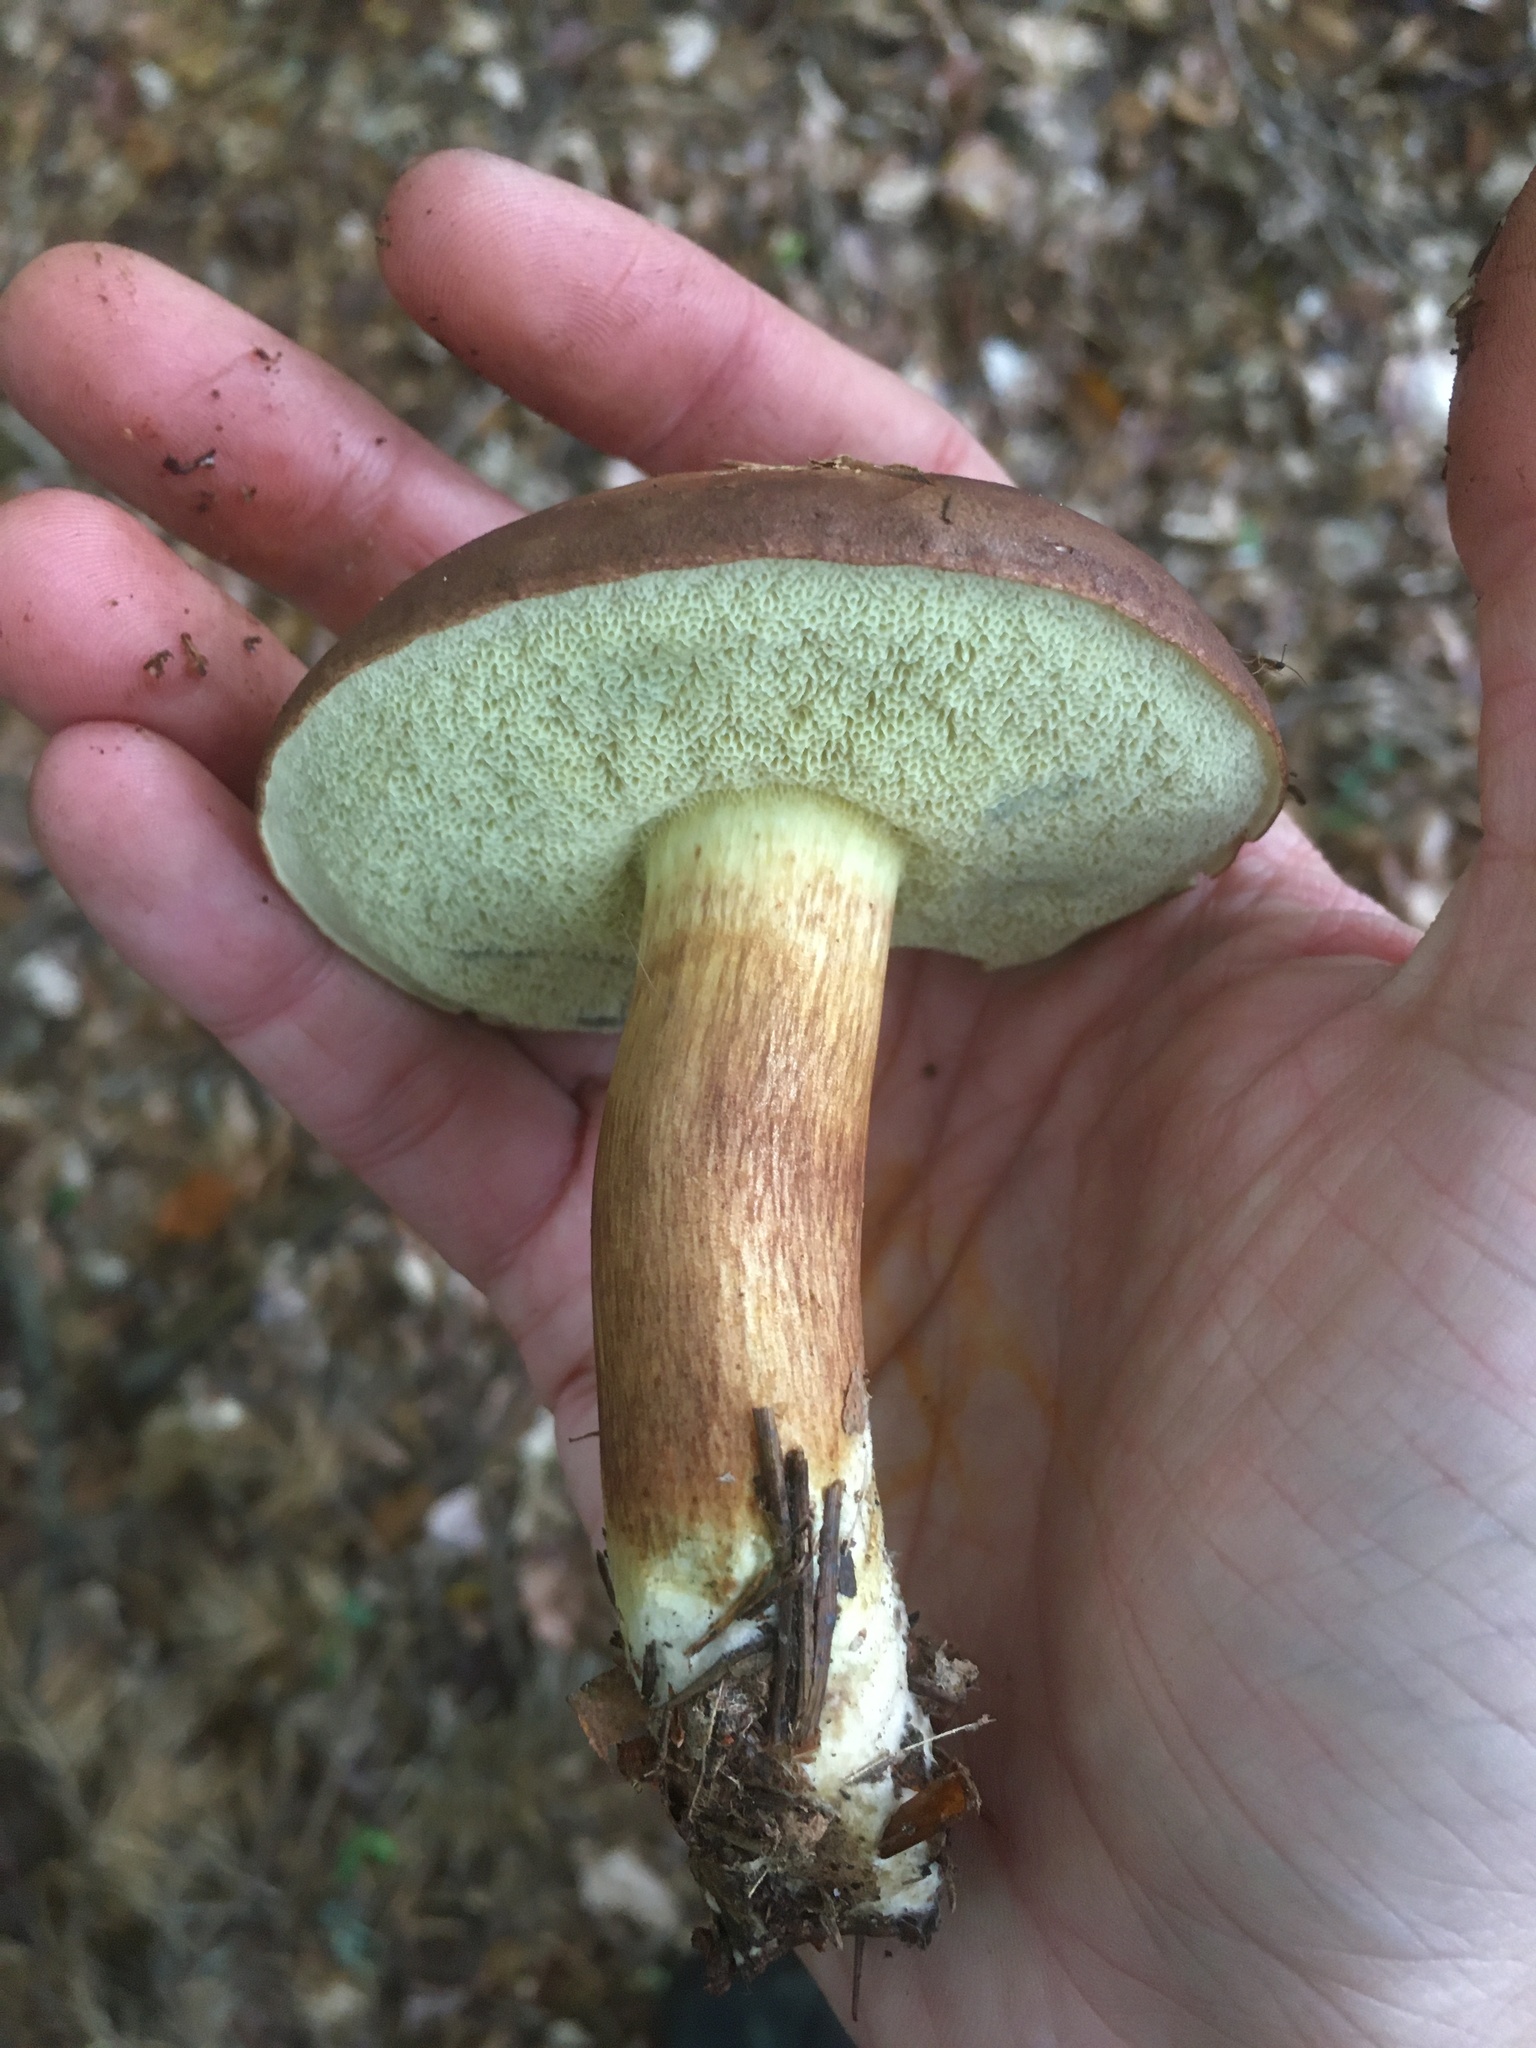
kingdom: Fungi
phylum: Basidiomycota
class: Agaricomycetes
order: Boletales
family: Boletaceae
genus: Imleria
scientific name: Imleria badia
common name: Bay bolete
